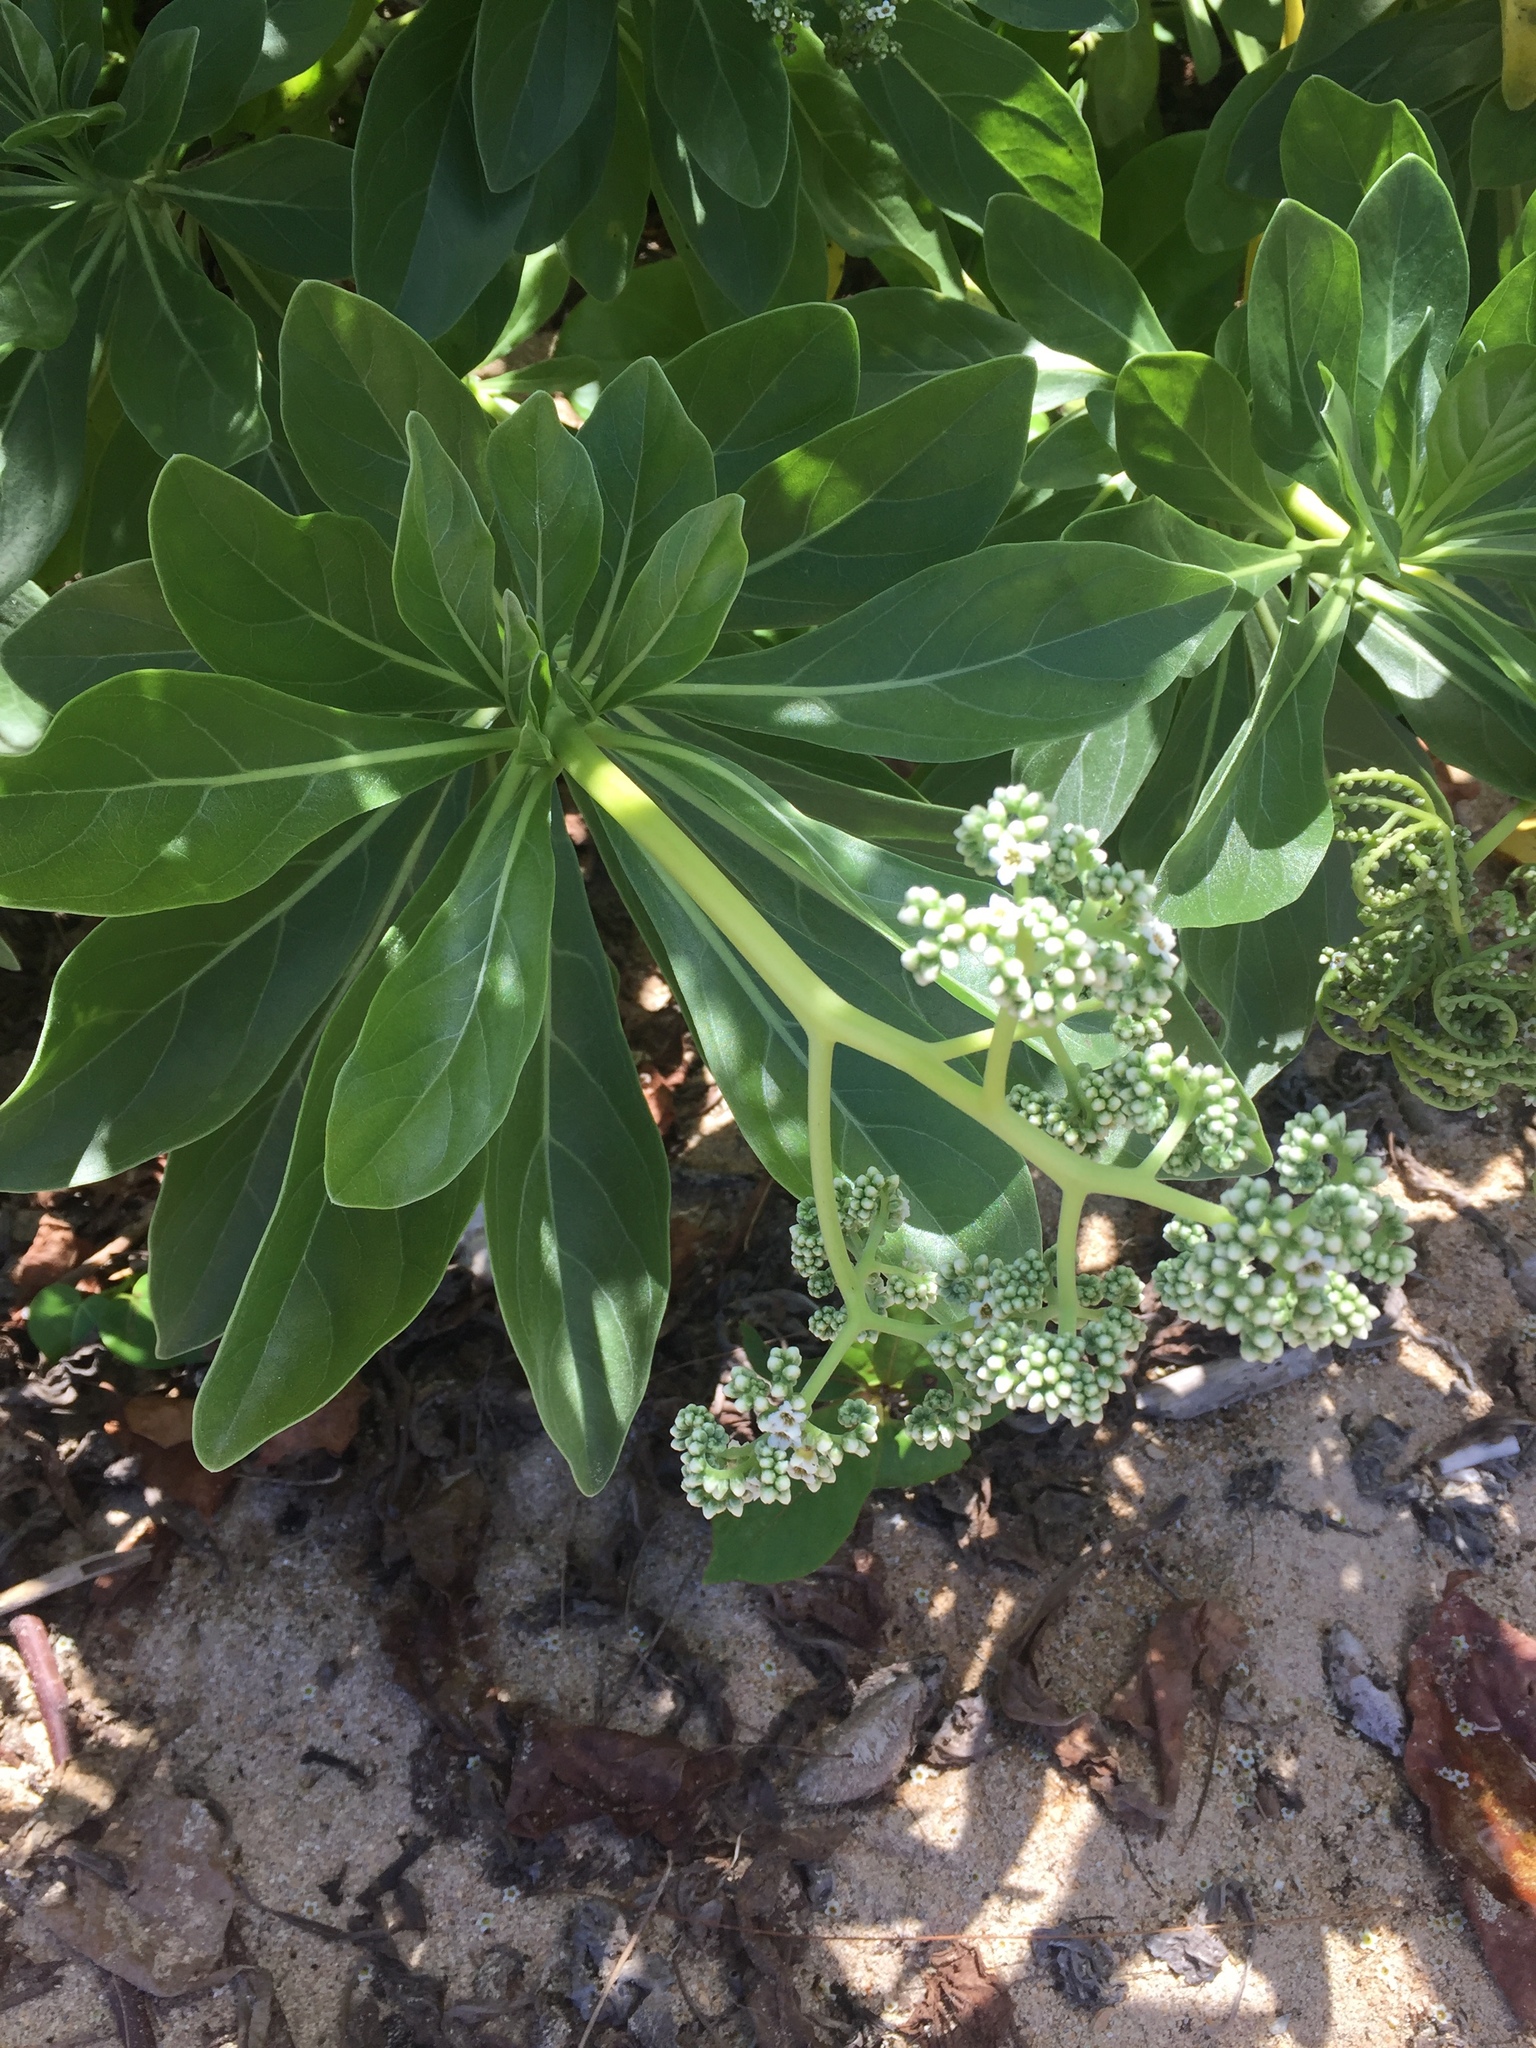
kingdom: Plantae
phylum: Tracheophyta
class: Magnoliopsida
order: Boraginales
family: Heliotropiaceae
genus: Heliotropium
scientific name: Heliotropium velutinum
